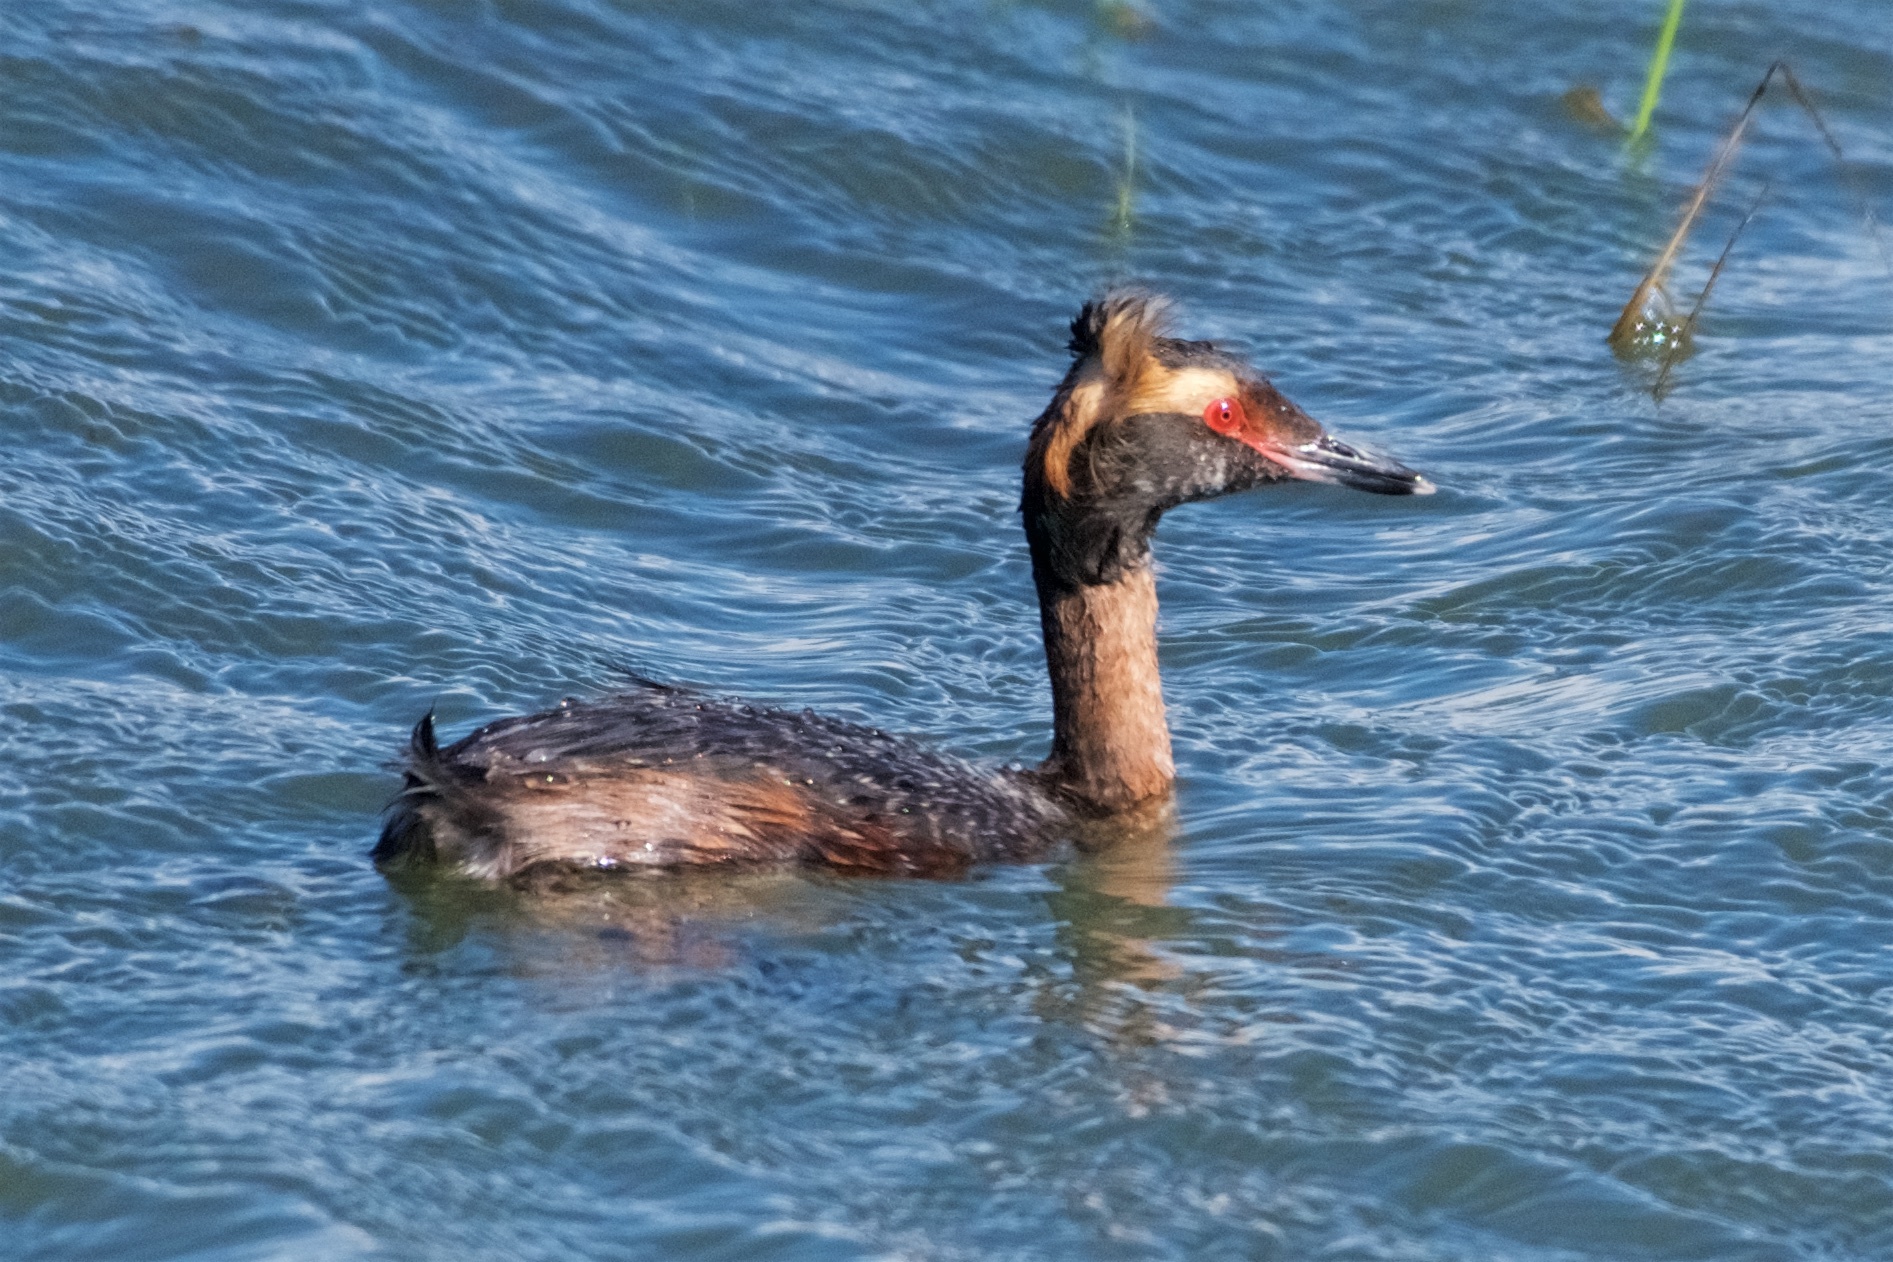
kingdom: Animalia
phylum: Chordata
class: Aves
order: Podicipediformes
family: Podicipedidae
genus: Podiceps
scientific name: Podiceps auritus
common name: Horned grebe
